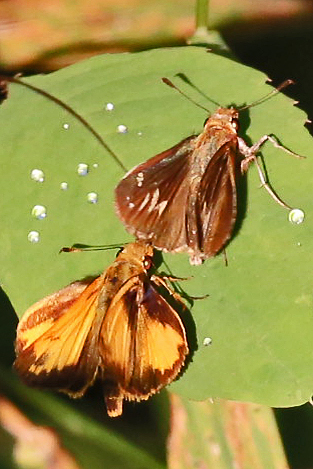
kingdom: Animalia
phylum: Arthropoda
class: Insecta
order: Lepidoptera
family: Hesperiidae
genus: Lon
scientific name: Lon zabulon
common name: Zabulon skipper
